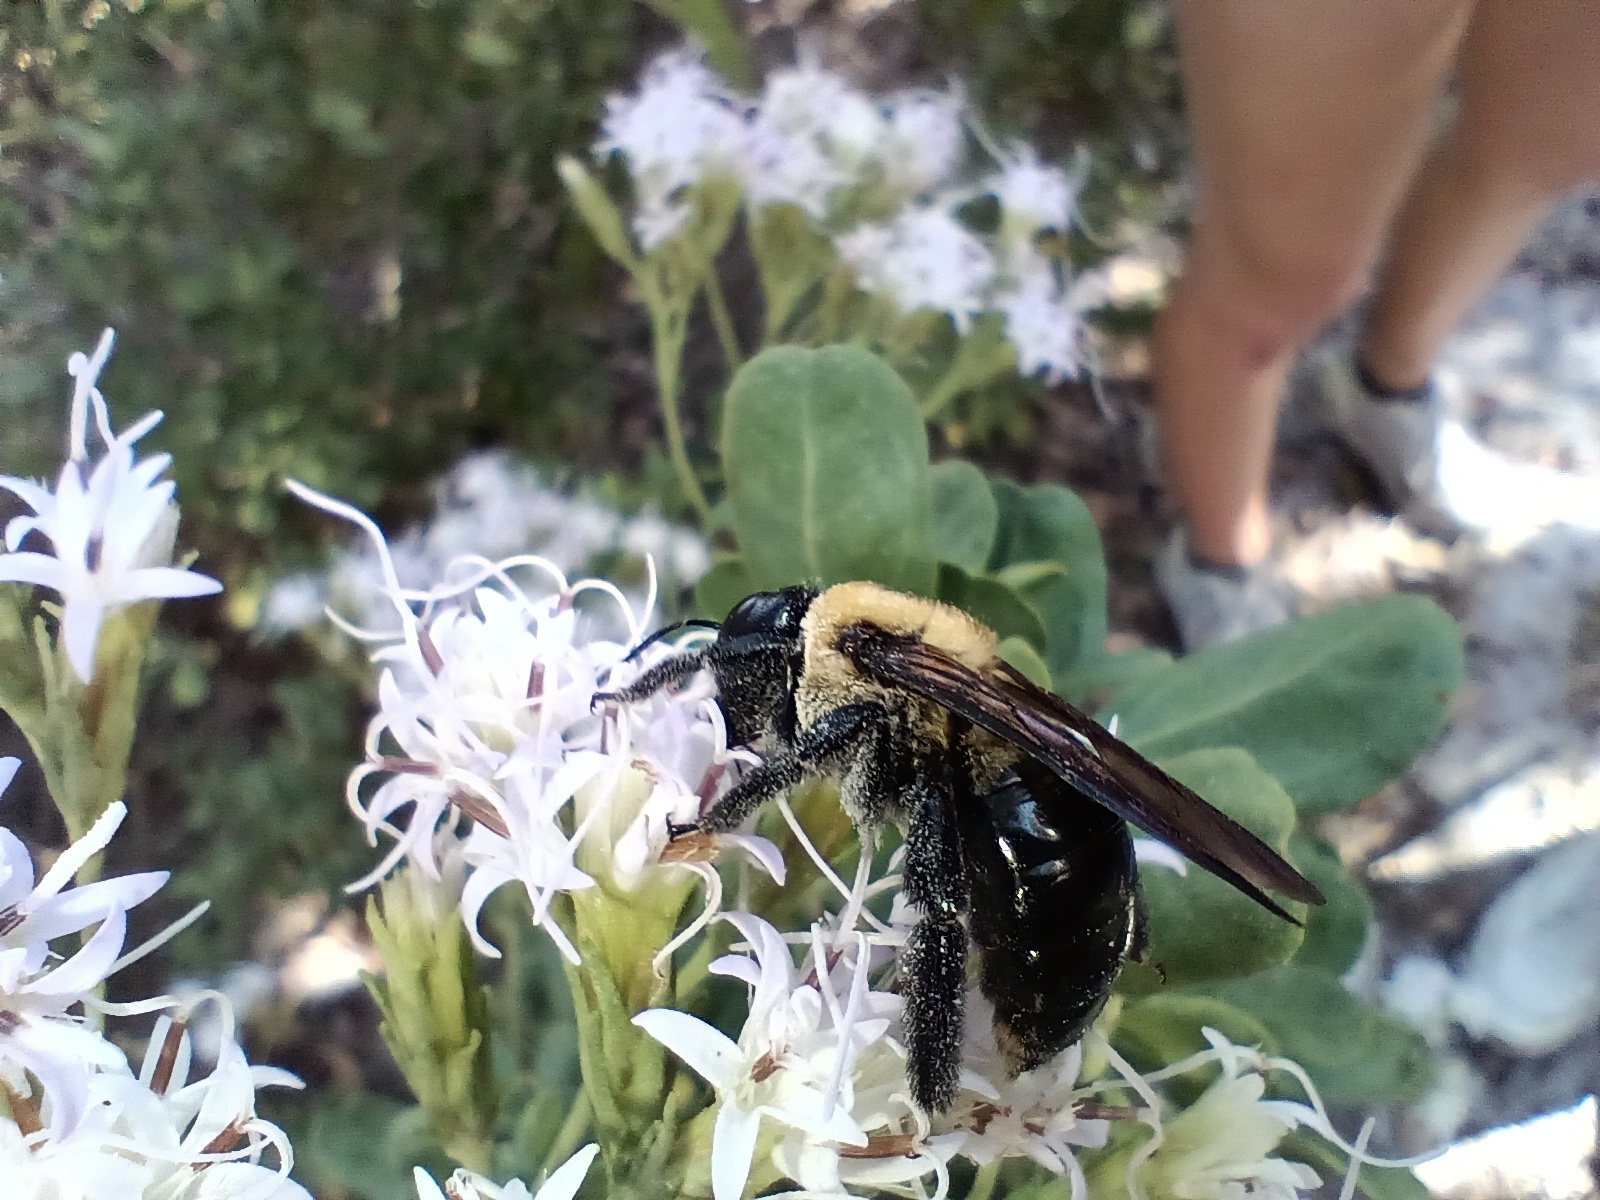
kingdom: Animalia
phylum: Arthropoda
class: Insecta
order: Hymenoptera
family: Apidae
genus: Xylocopa
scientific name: Xylocopa virginica
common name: Carpenter bee
